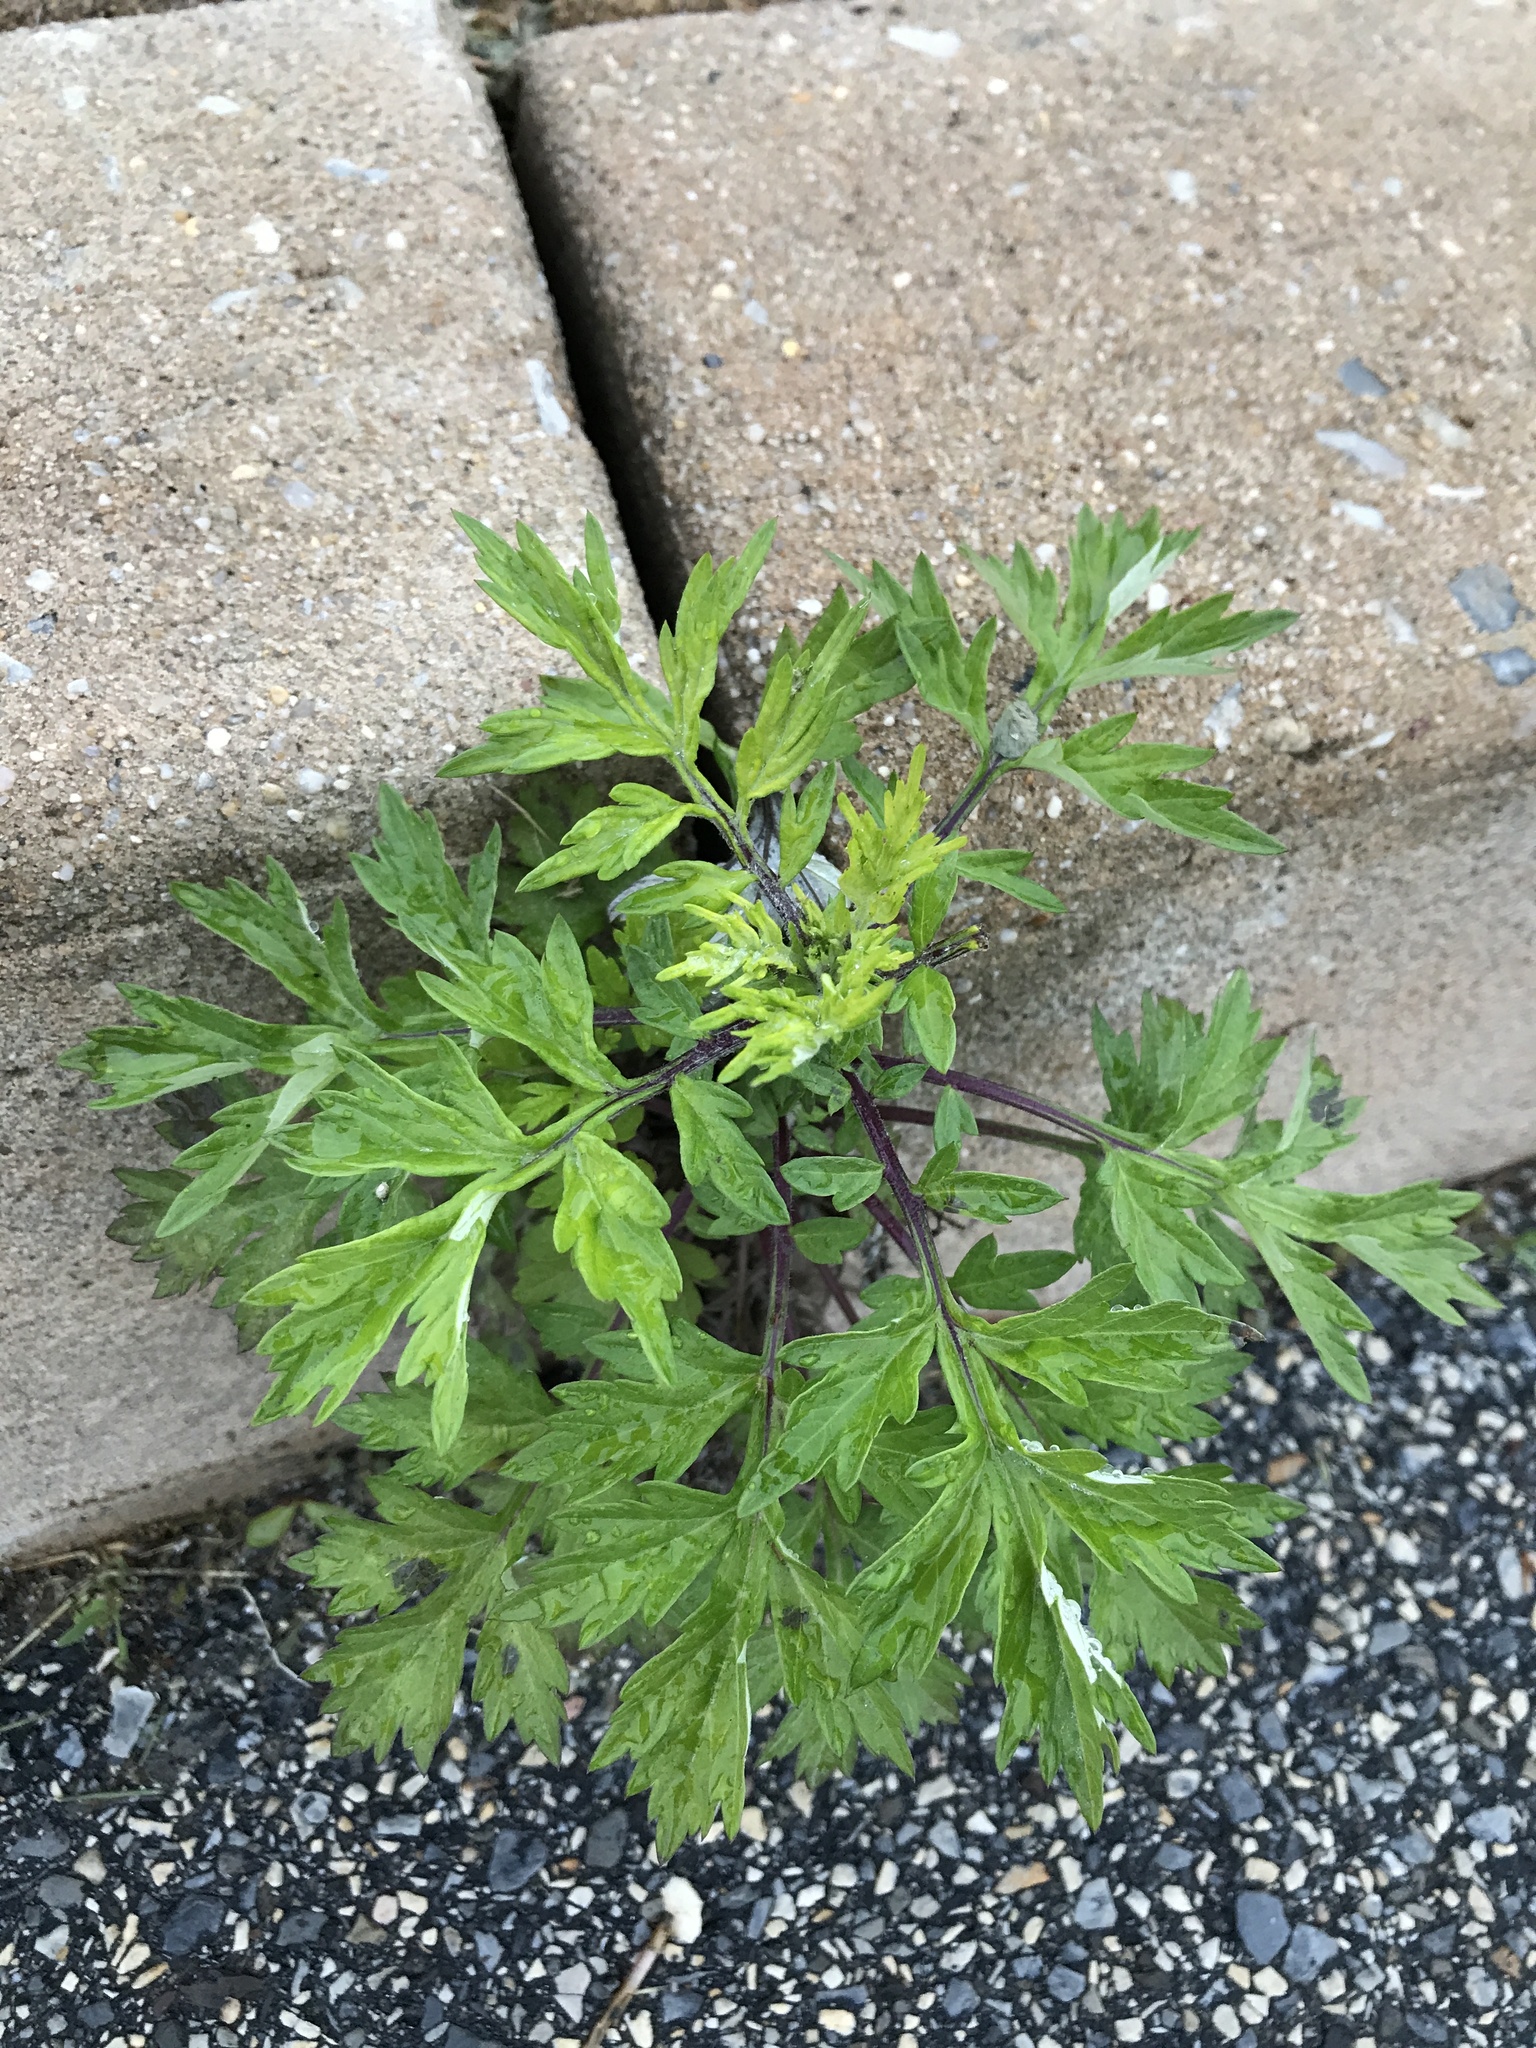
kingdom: Plantae
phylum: Tracheophyta
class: Magnoliopsida
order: Asterales
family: Asteraceae
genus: Artemisia
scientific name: Artemisia vulgaris
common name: Mugwort
